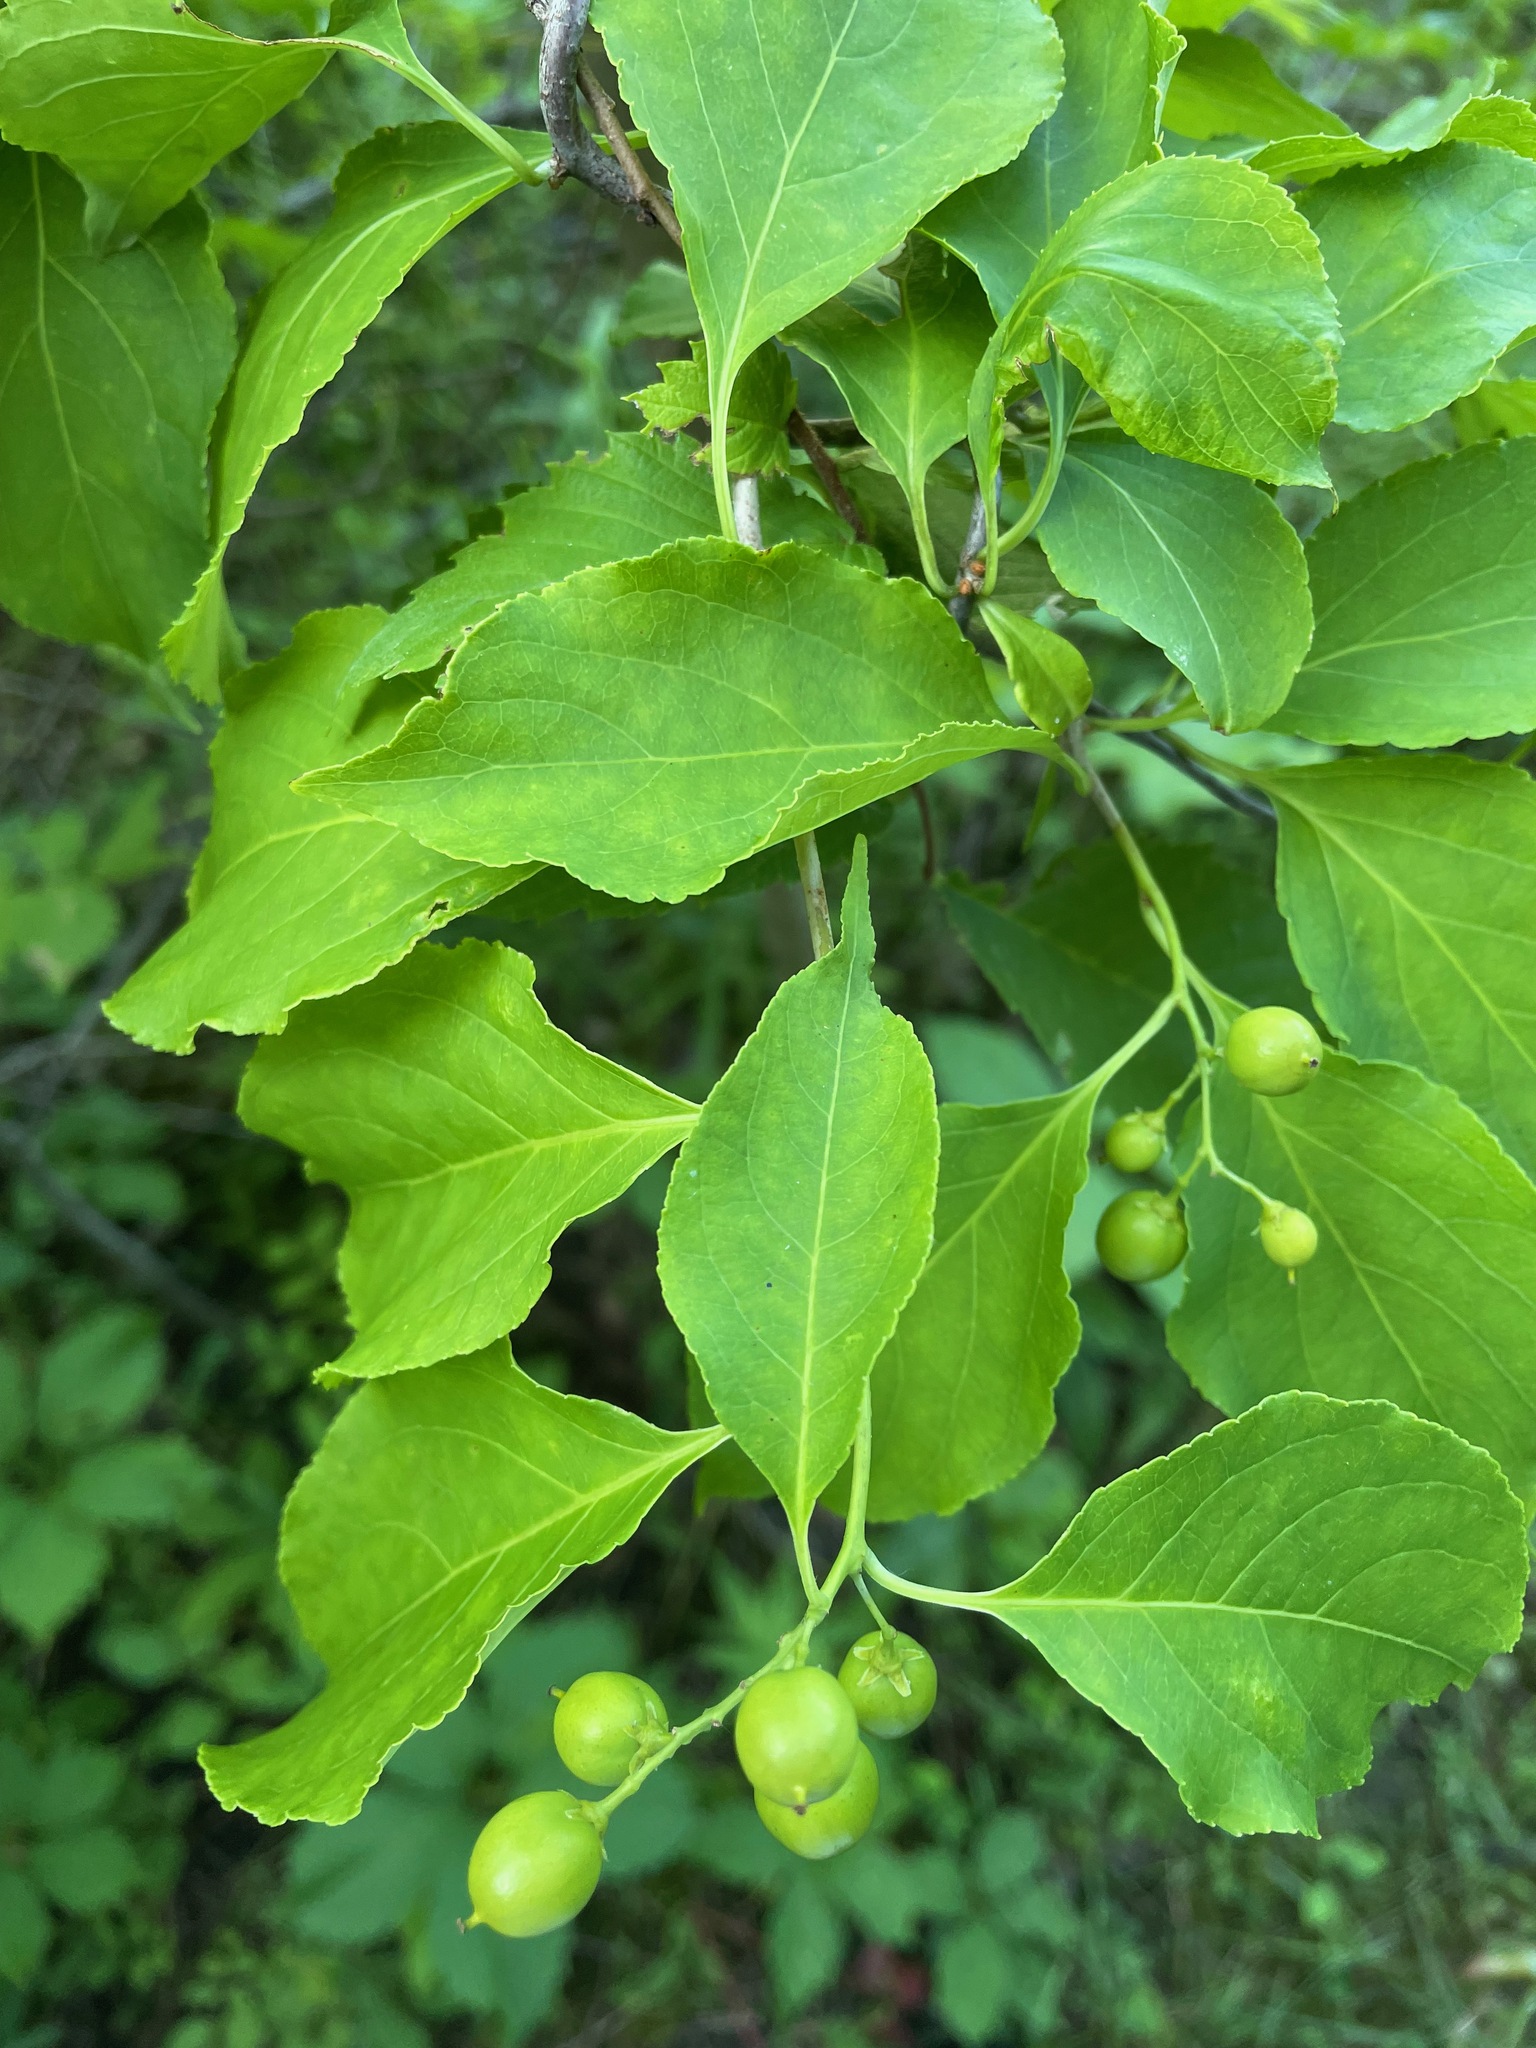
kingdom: Plantae
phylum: Tracheophyta
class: Magnoliopsida
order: Celastrales
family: Celastraceae
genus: Celastrus
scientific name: Celastrus scandens
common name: American bittersweet
